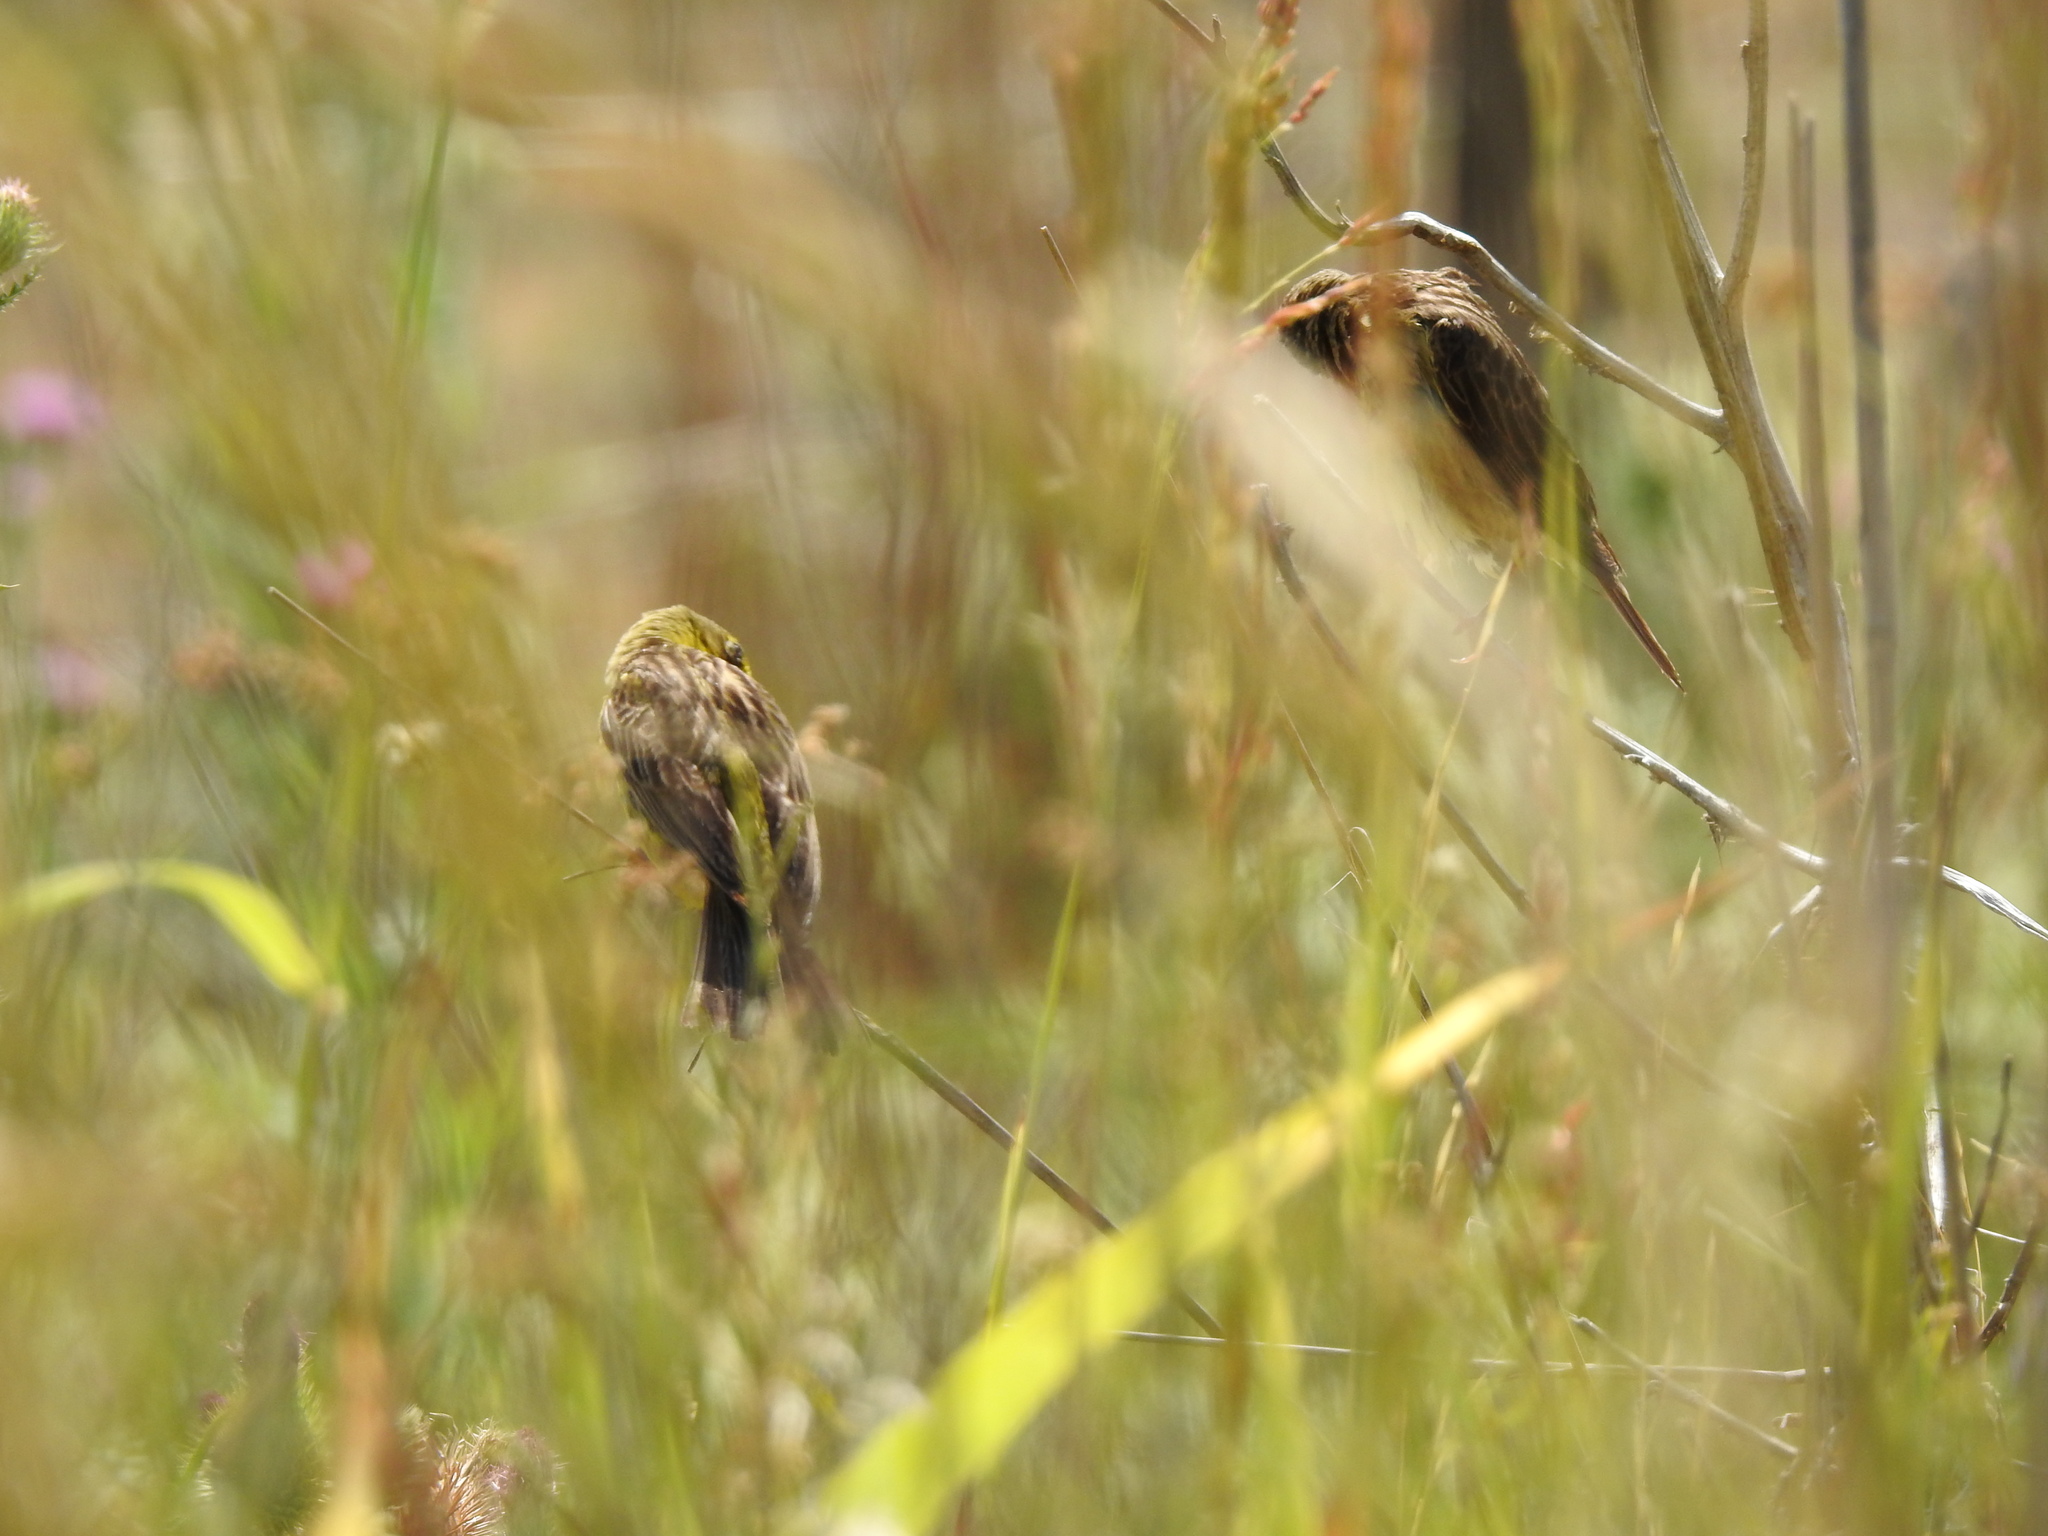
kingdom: Animalia
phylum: Chordata
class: Aves
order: Passeriformes
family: Thraupidae
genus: Sicalis
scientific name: Sicalis luteola
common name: Grassland yellow-finch
